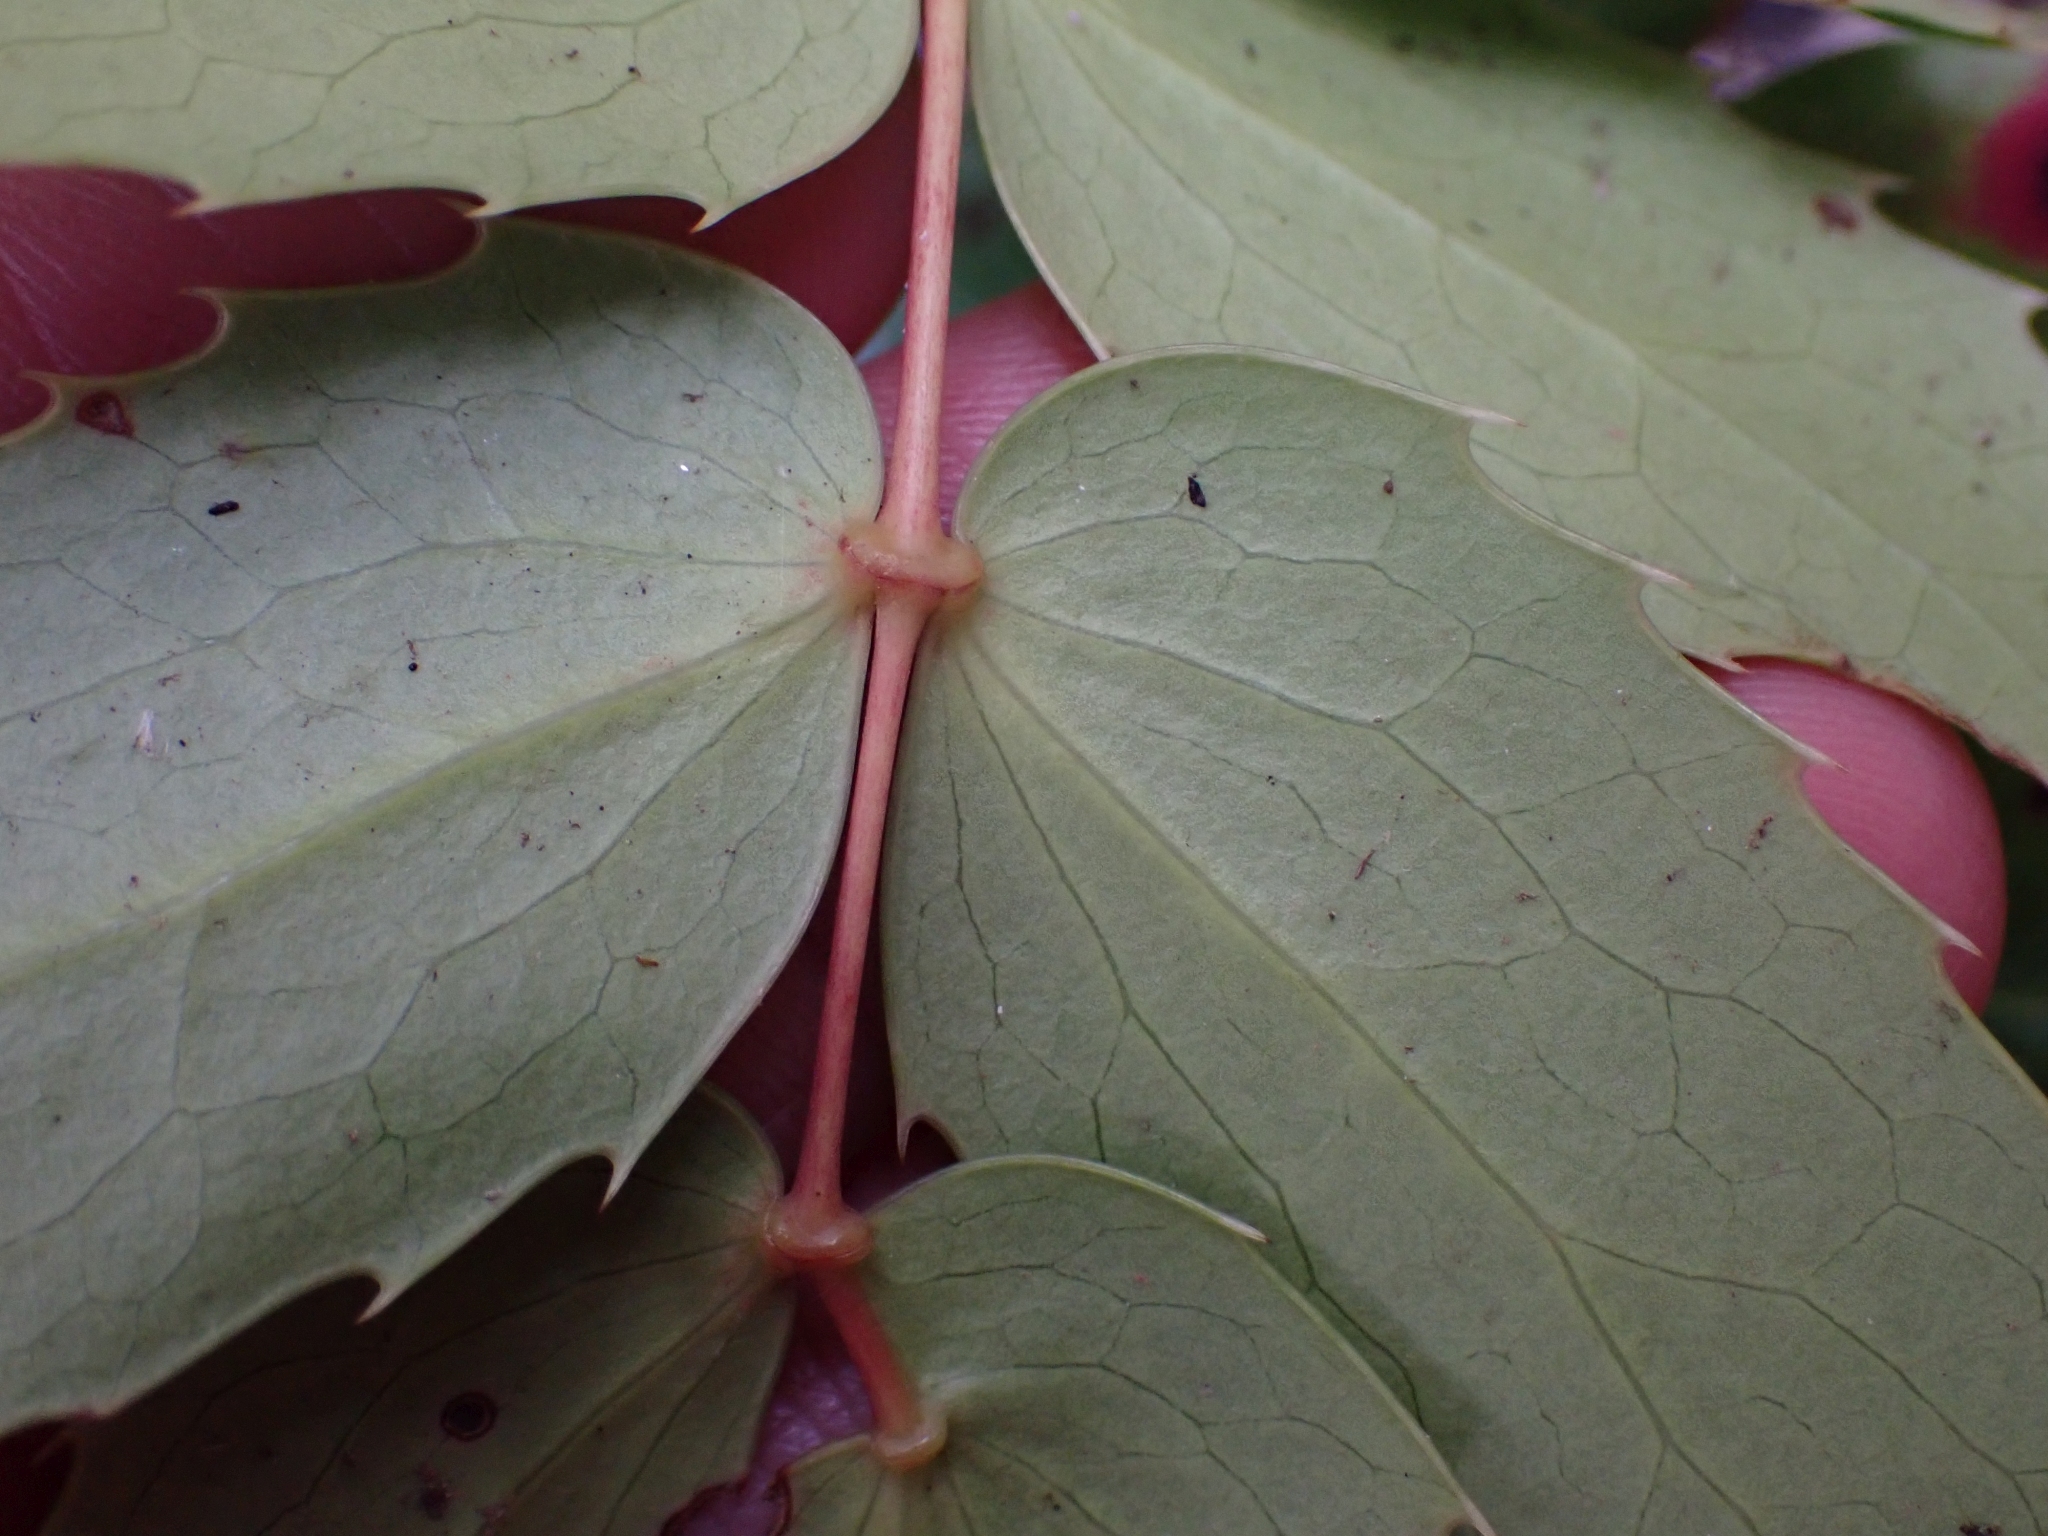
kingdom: Plantae
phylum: Tracheophyta
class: Magnoliopsida
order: Ranunculales
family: Berberidaceae
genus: Mahonia
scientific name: Mahonia nervosa
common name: Cascade oregon-grape
